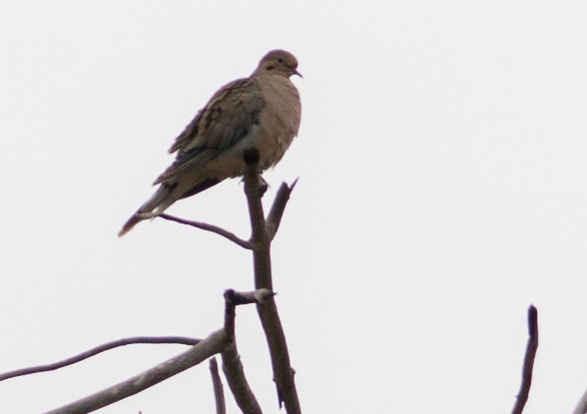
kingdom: Animalia
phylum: Chordata
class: Aves
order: Columbiformes
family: Columbidae
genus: Zenaida
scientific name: Zenaida macroura
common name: Mourning dove
